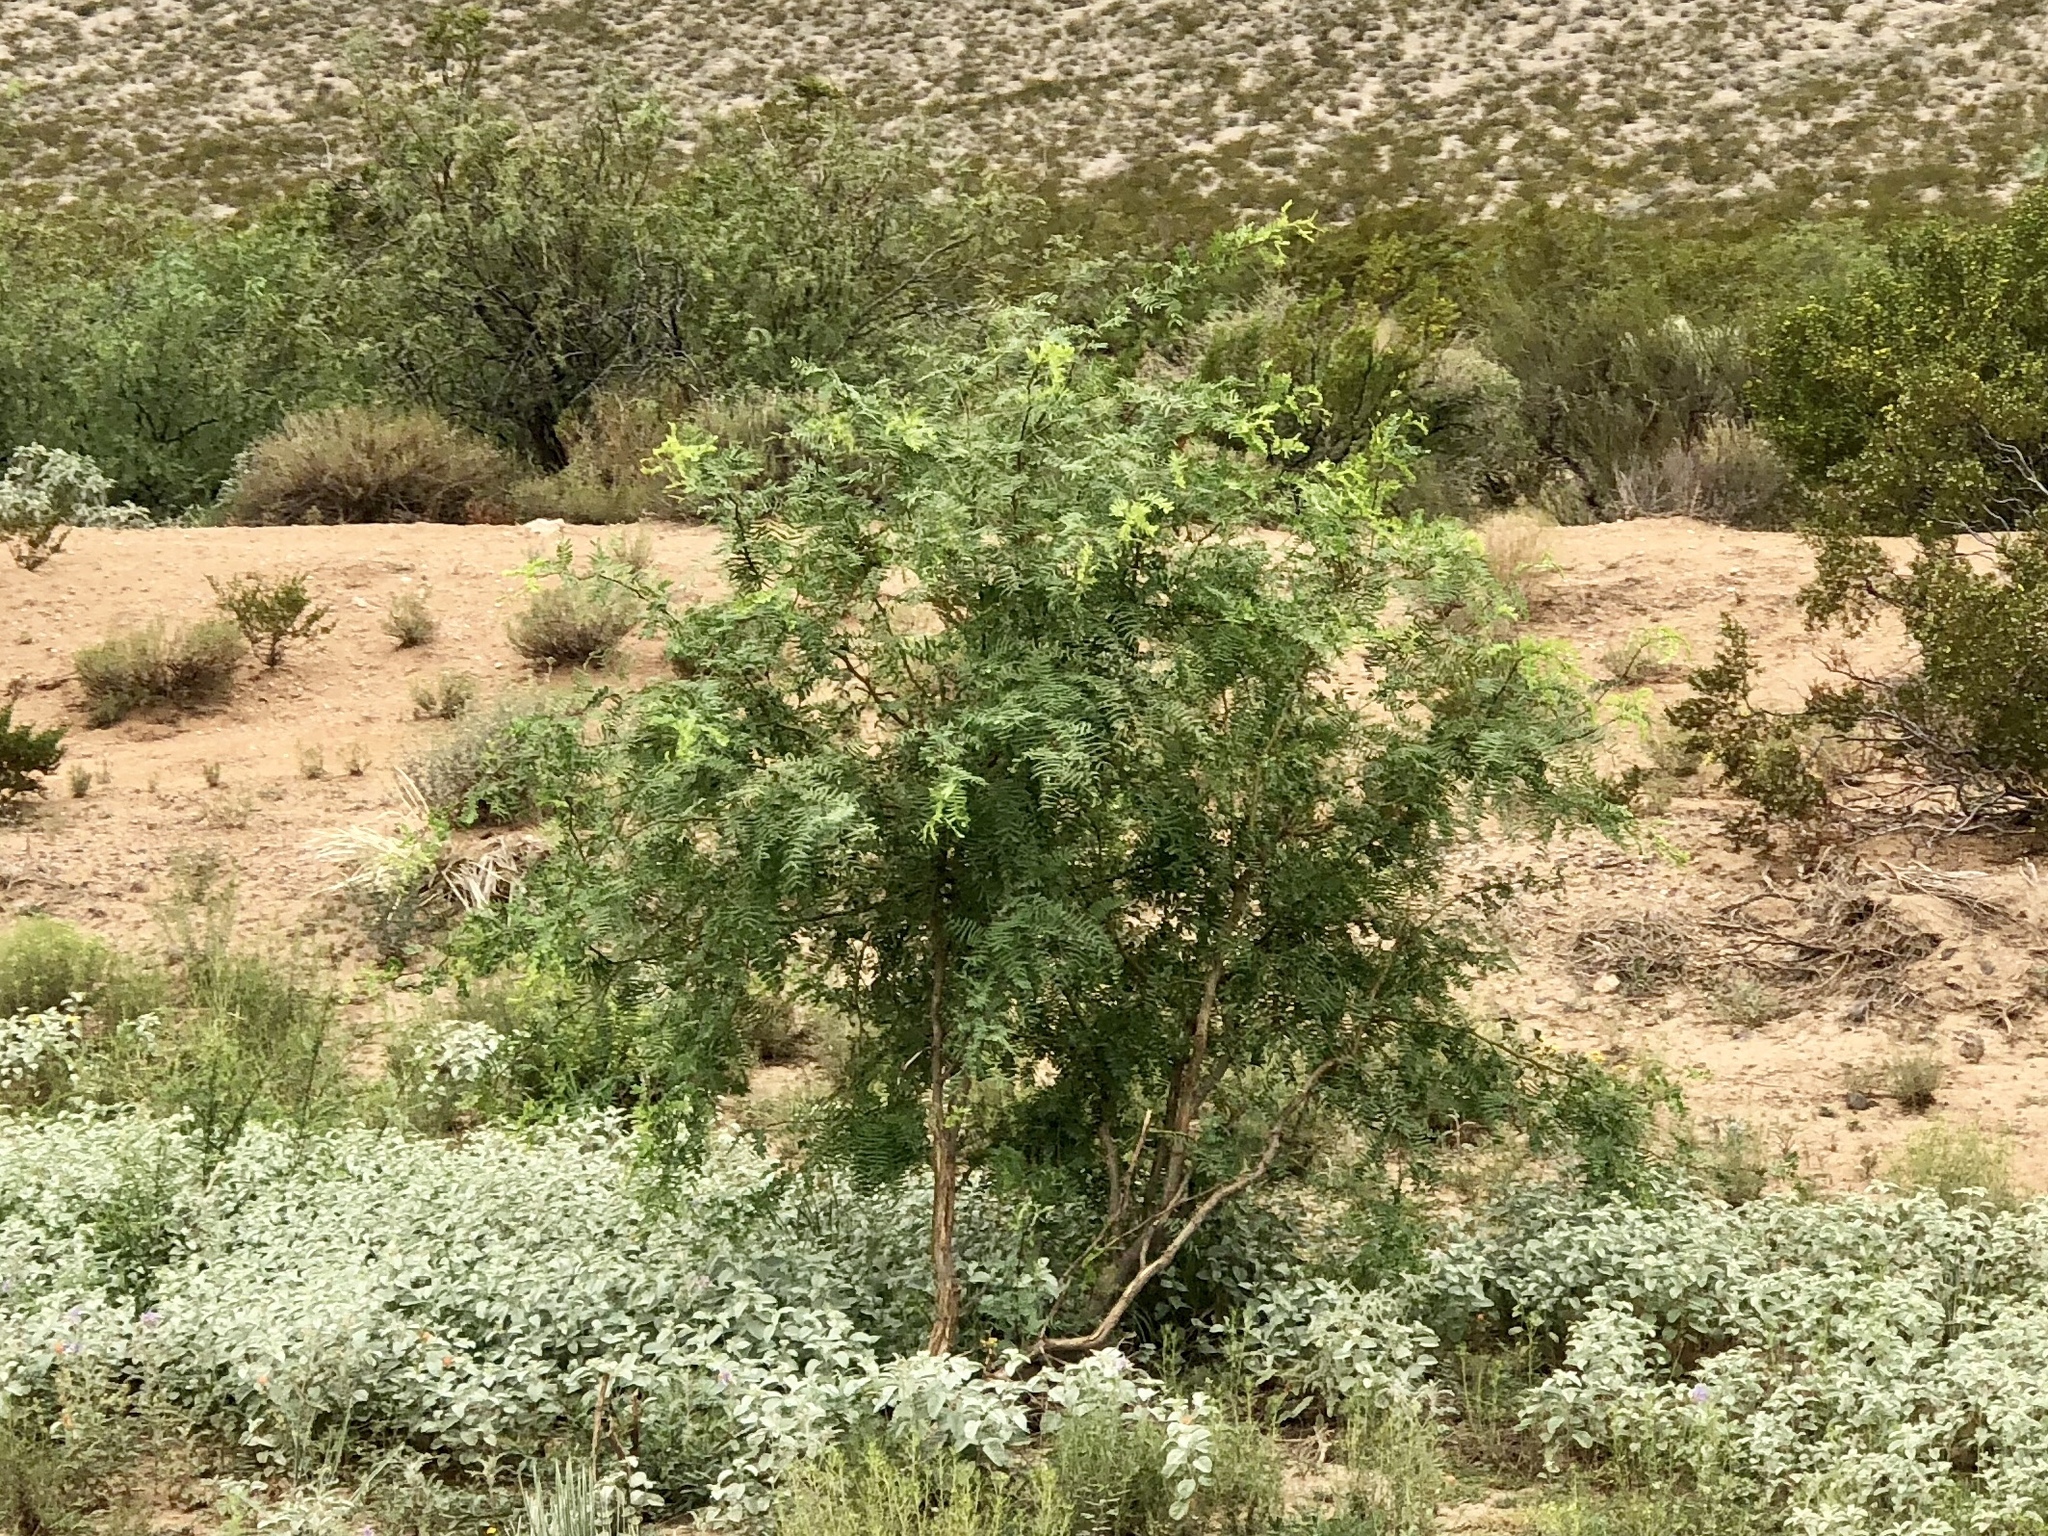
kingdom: Plantae
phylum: Tracheophyta
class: Magnoliopsida
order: Fabales
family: Fabaceae
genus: Prosopis
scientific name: Prosopis glandulosa
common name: Honey mesquite
